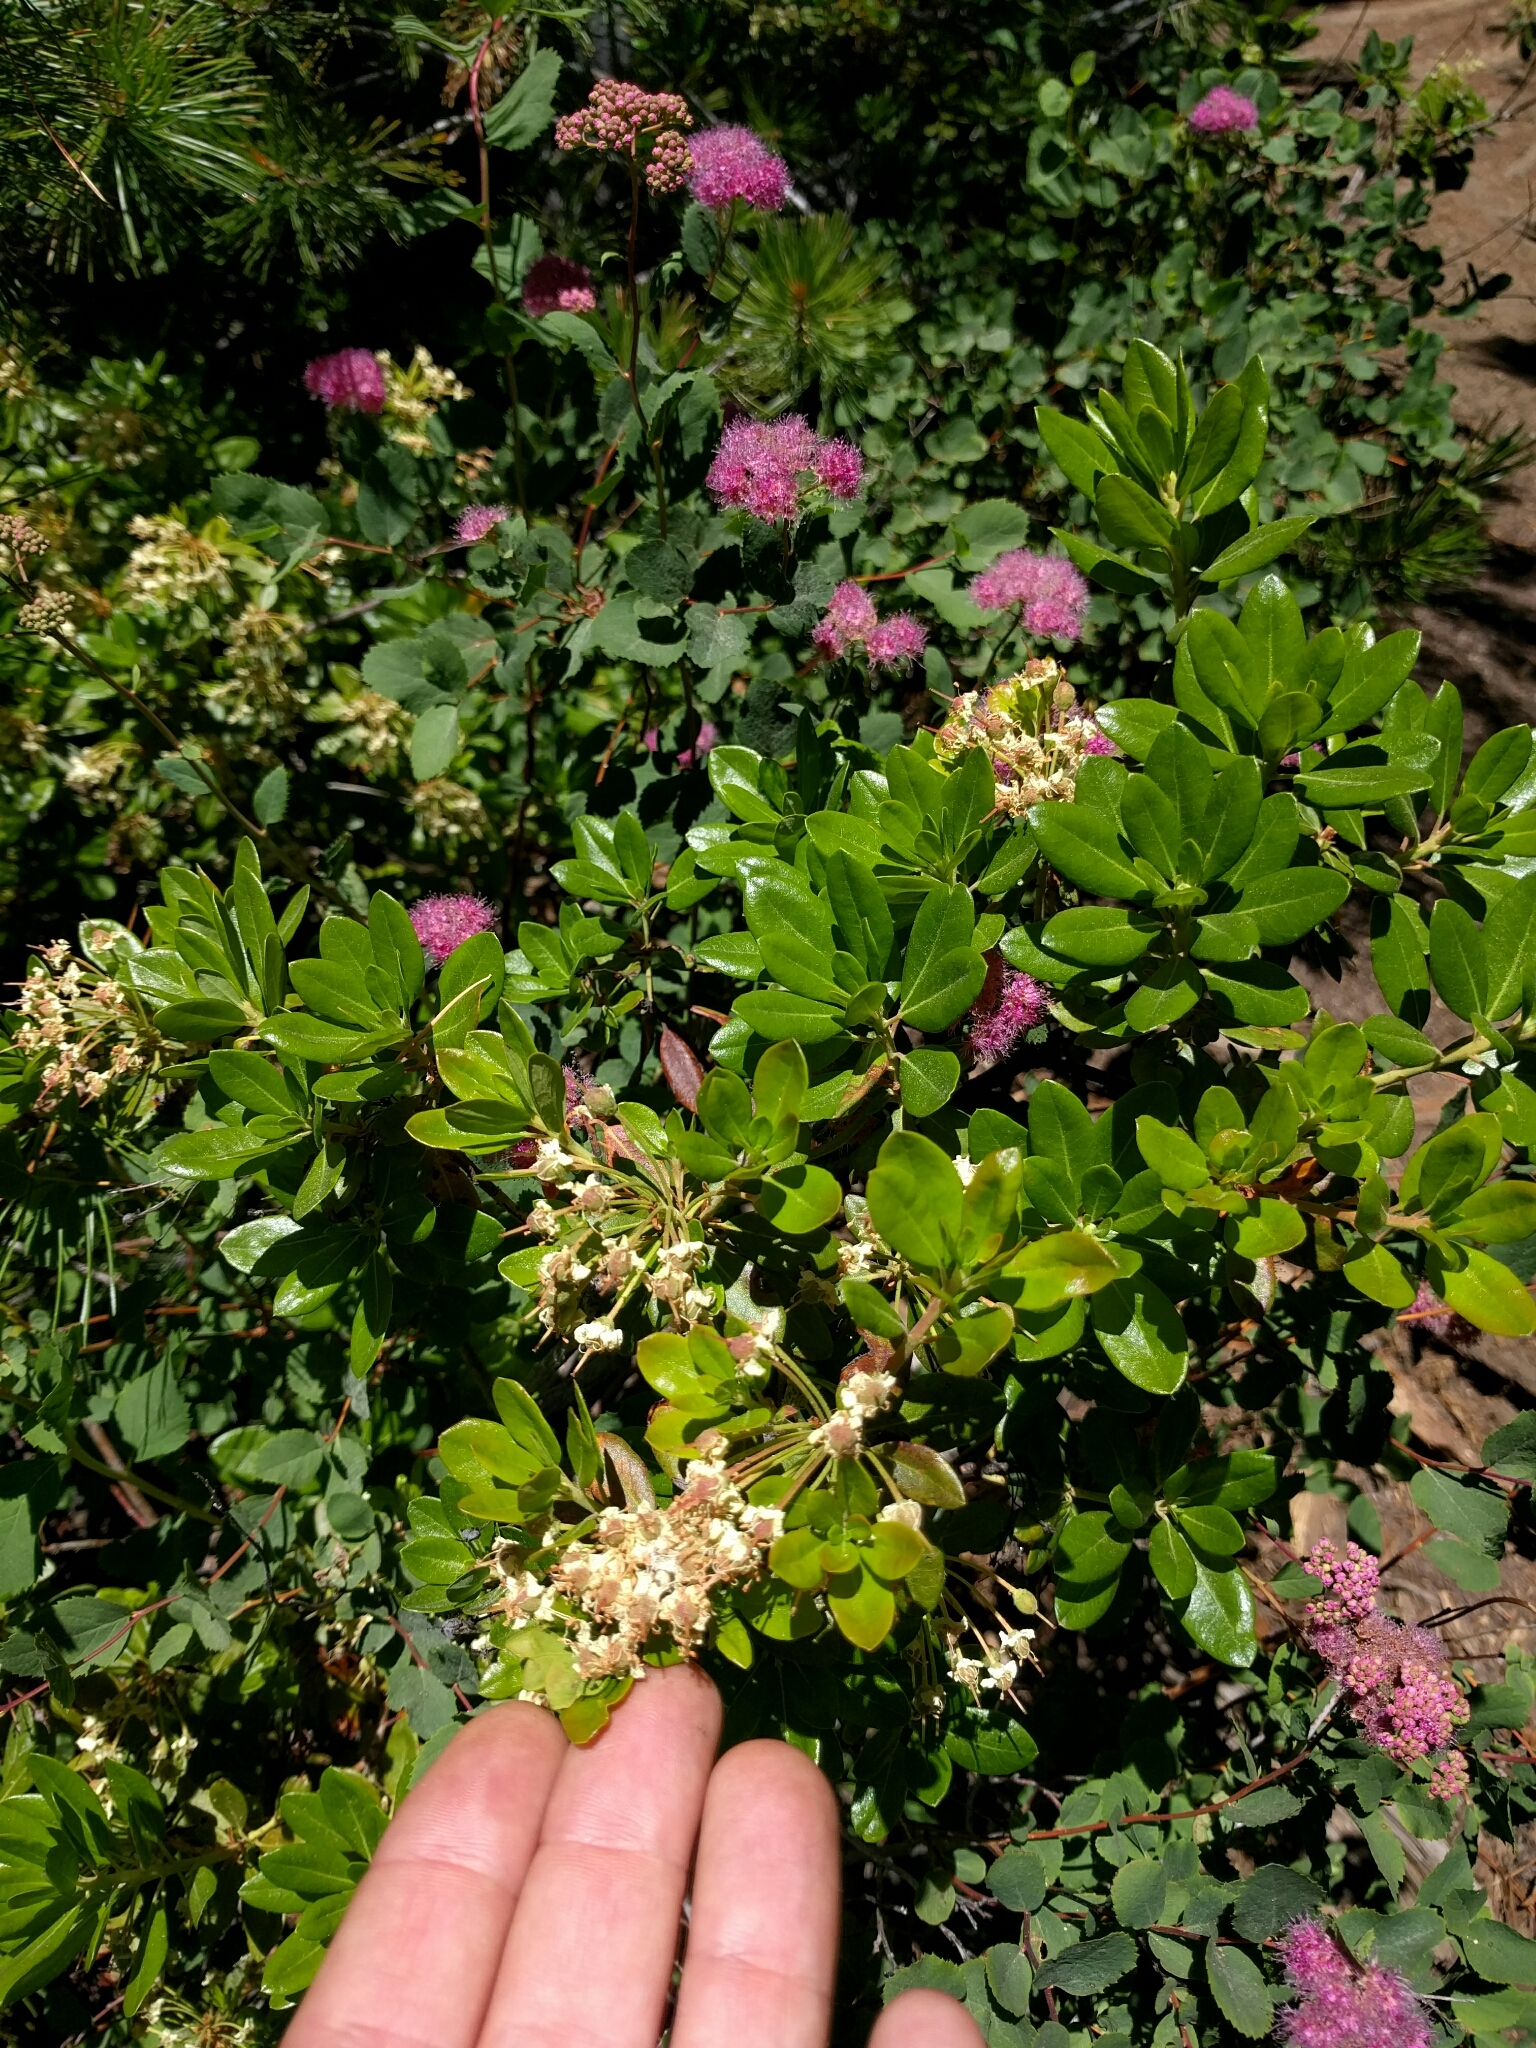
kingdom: Plantae
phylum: Tracheophyta
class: Magnoliopsida
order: Ericales
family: Ericaceae
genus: Rhododendron
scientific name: Rhododendron columbianum
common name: Western labrador tea
